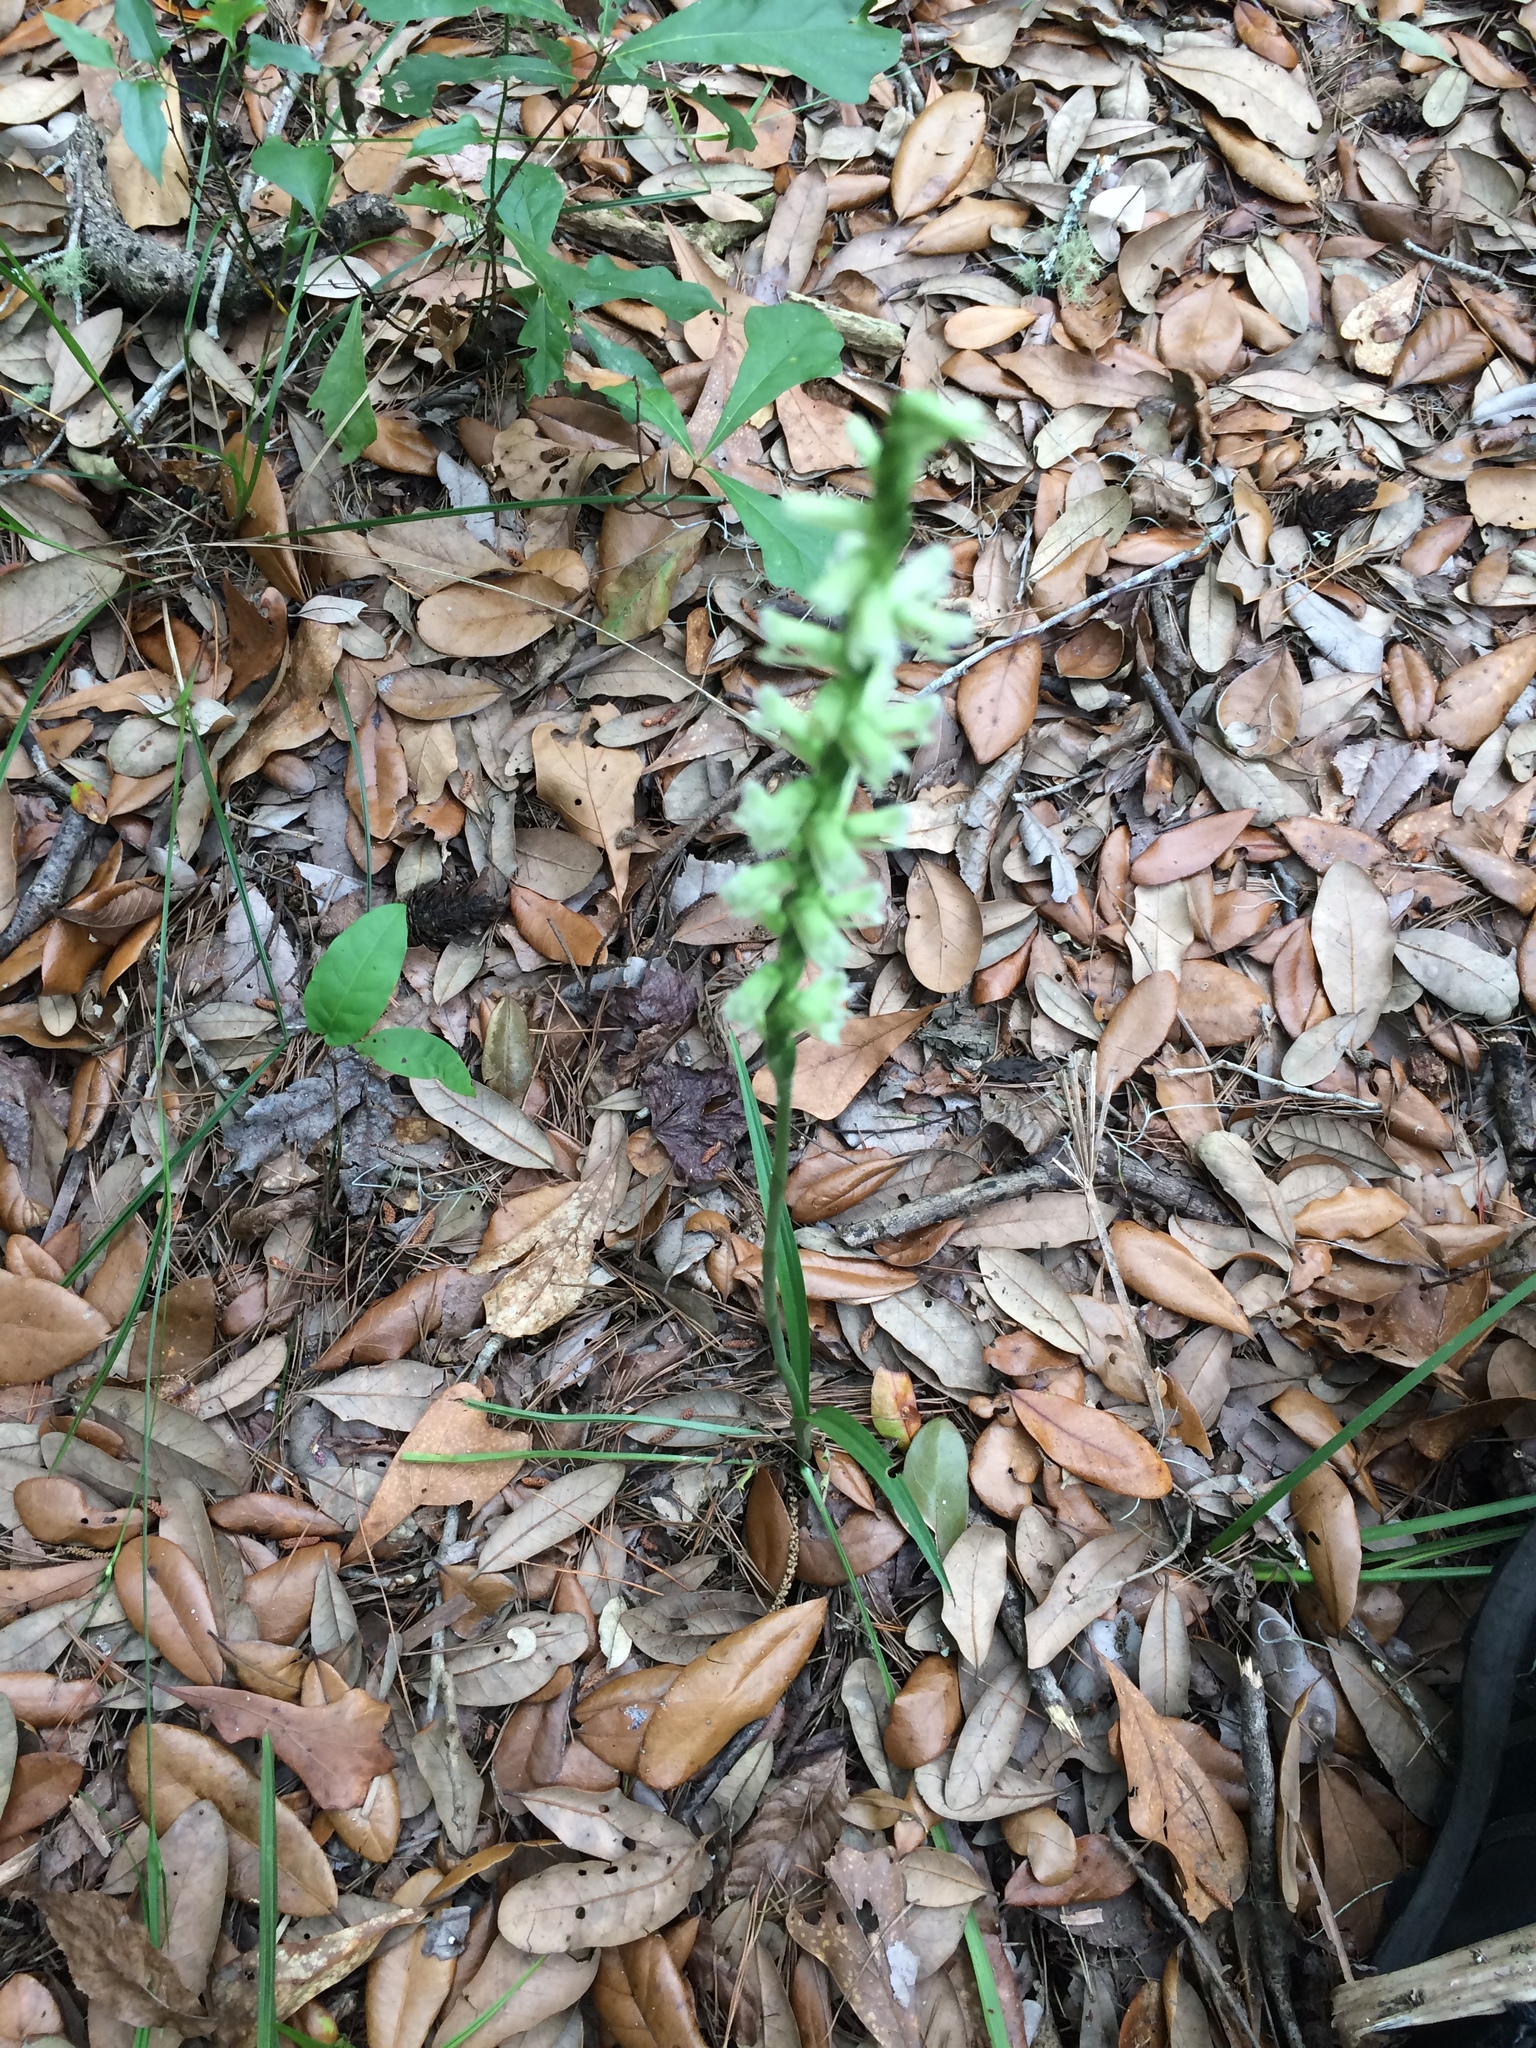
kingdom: Plantae
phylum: Tracheophyta
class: Liliopsida
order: Asparagales
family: Orchidaceae
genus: Spiranthes
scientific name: Spiranthes praecox
